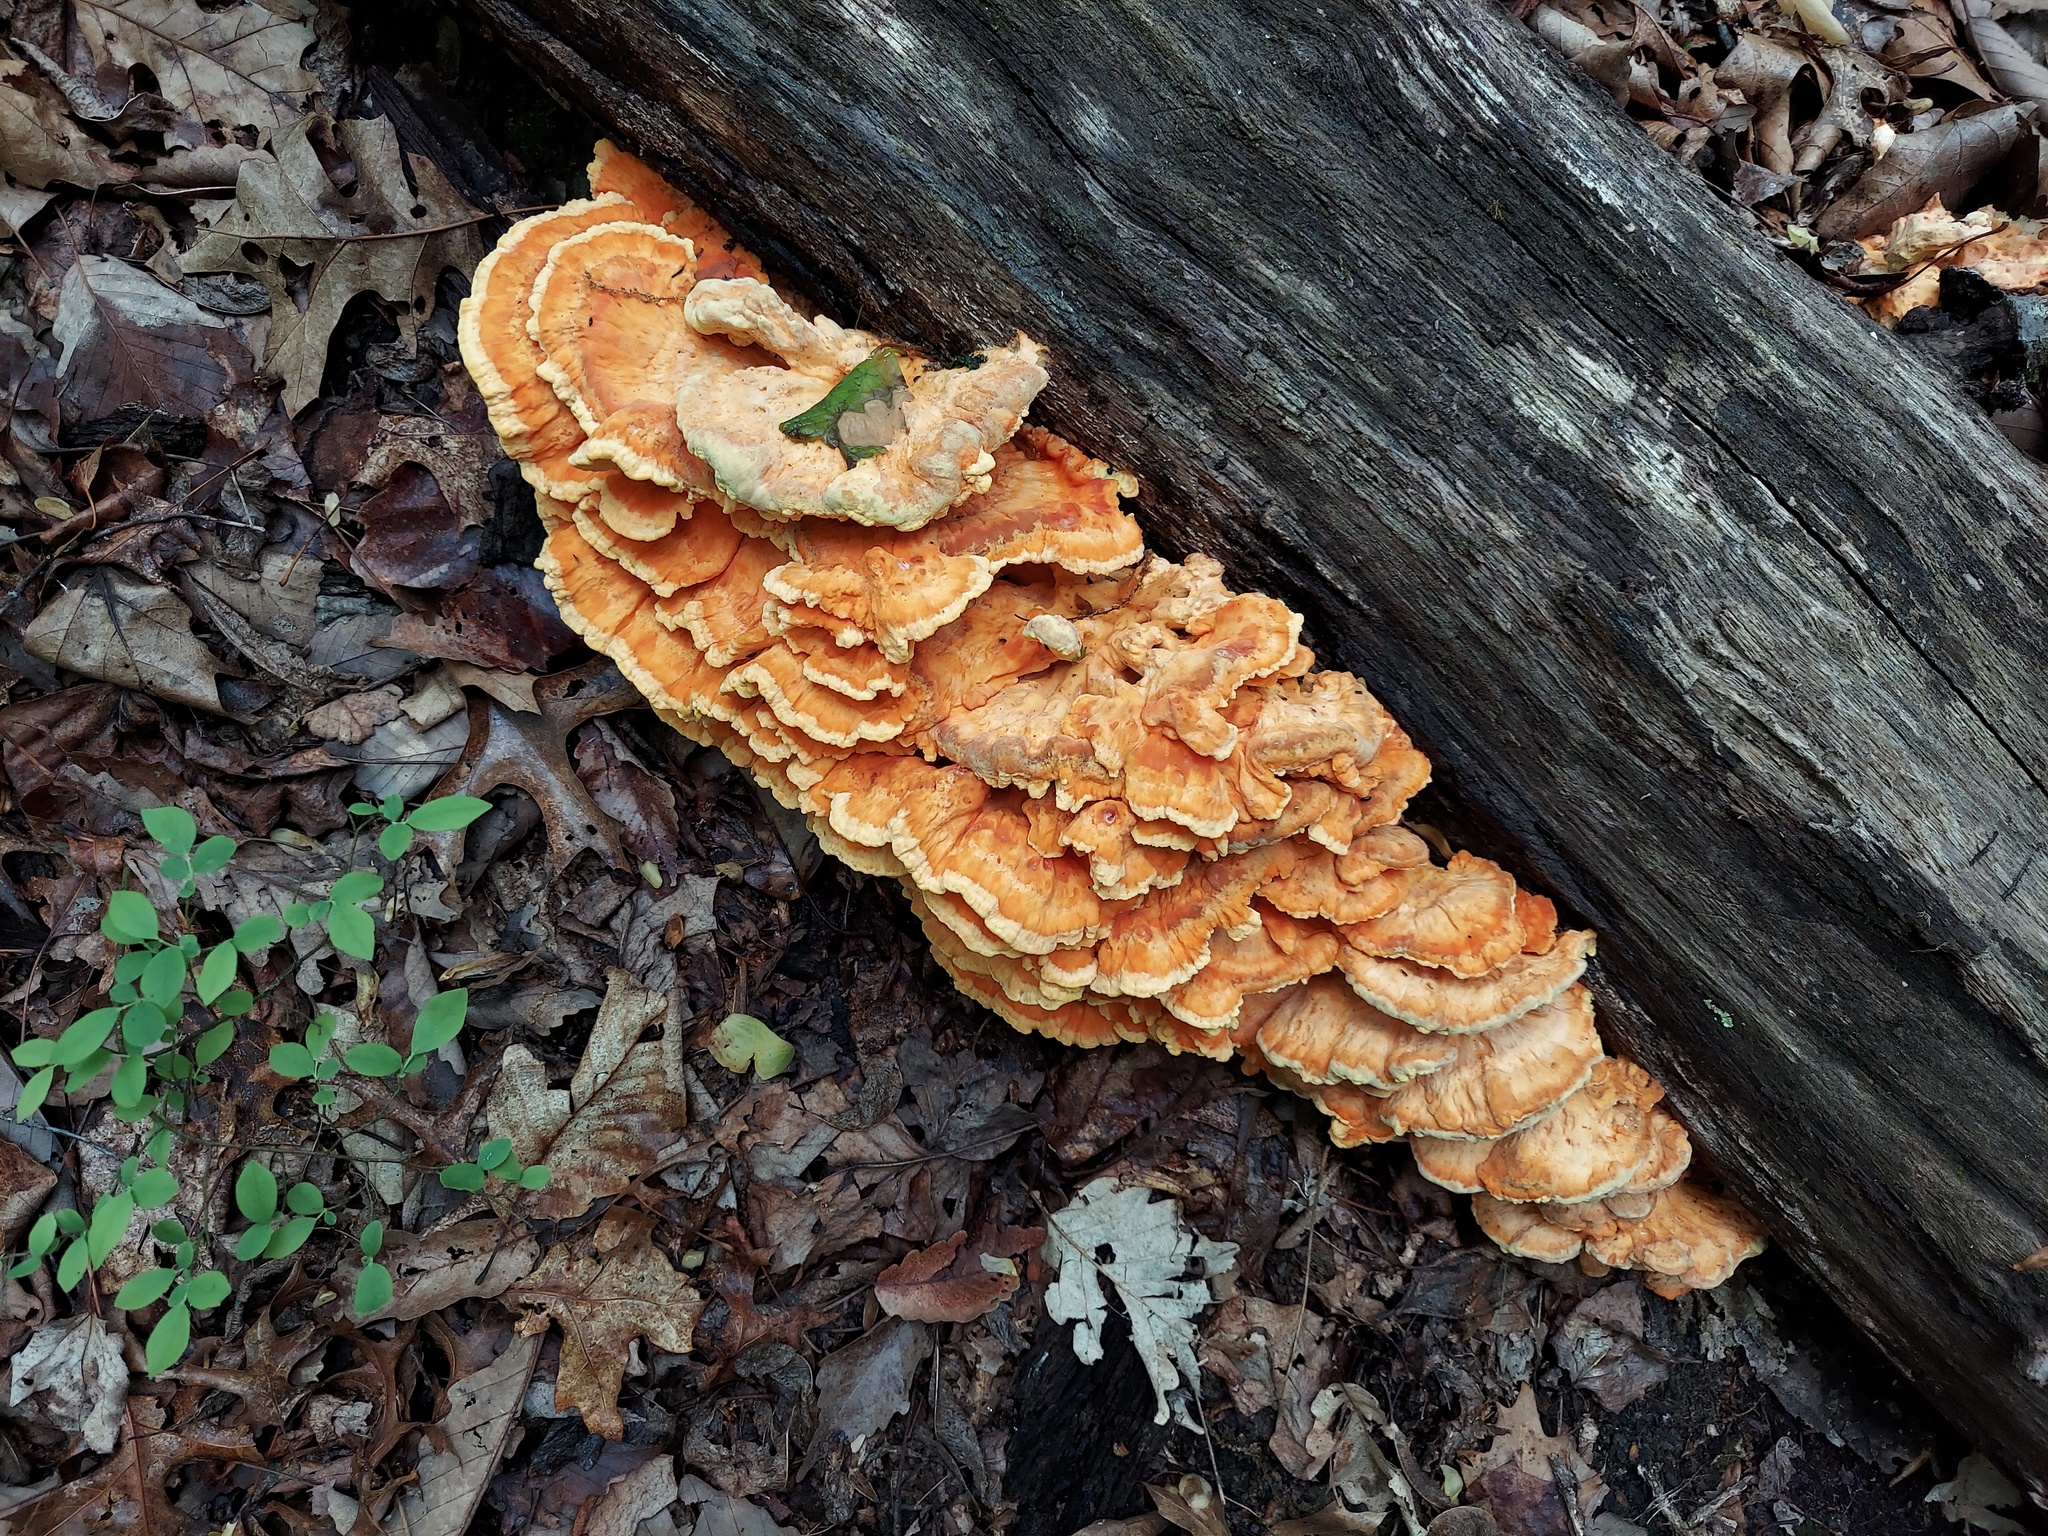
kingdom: Fungi
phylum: Basidiomycota
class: Agaricomycetes
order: Polyporales
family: Laetiporaceae
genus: Laetiporus
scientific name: Laetiporus sulphureus
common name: Chicken of the woods
